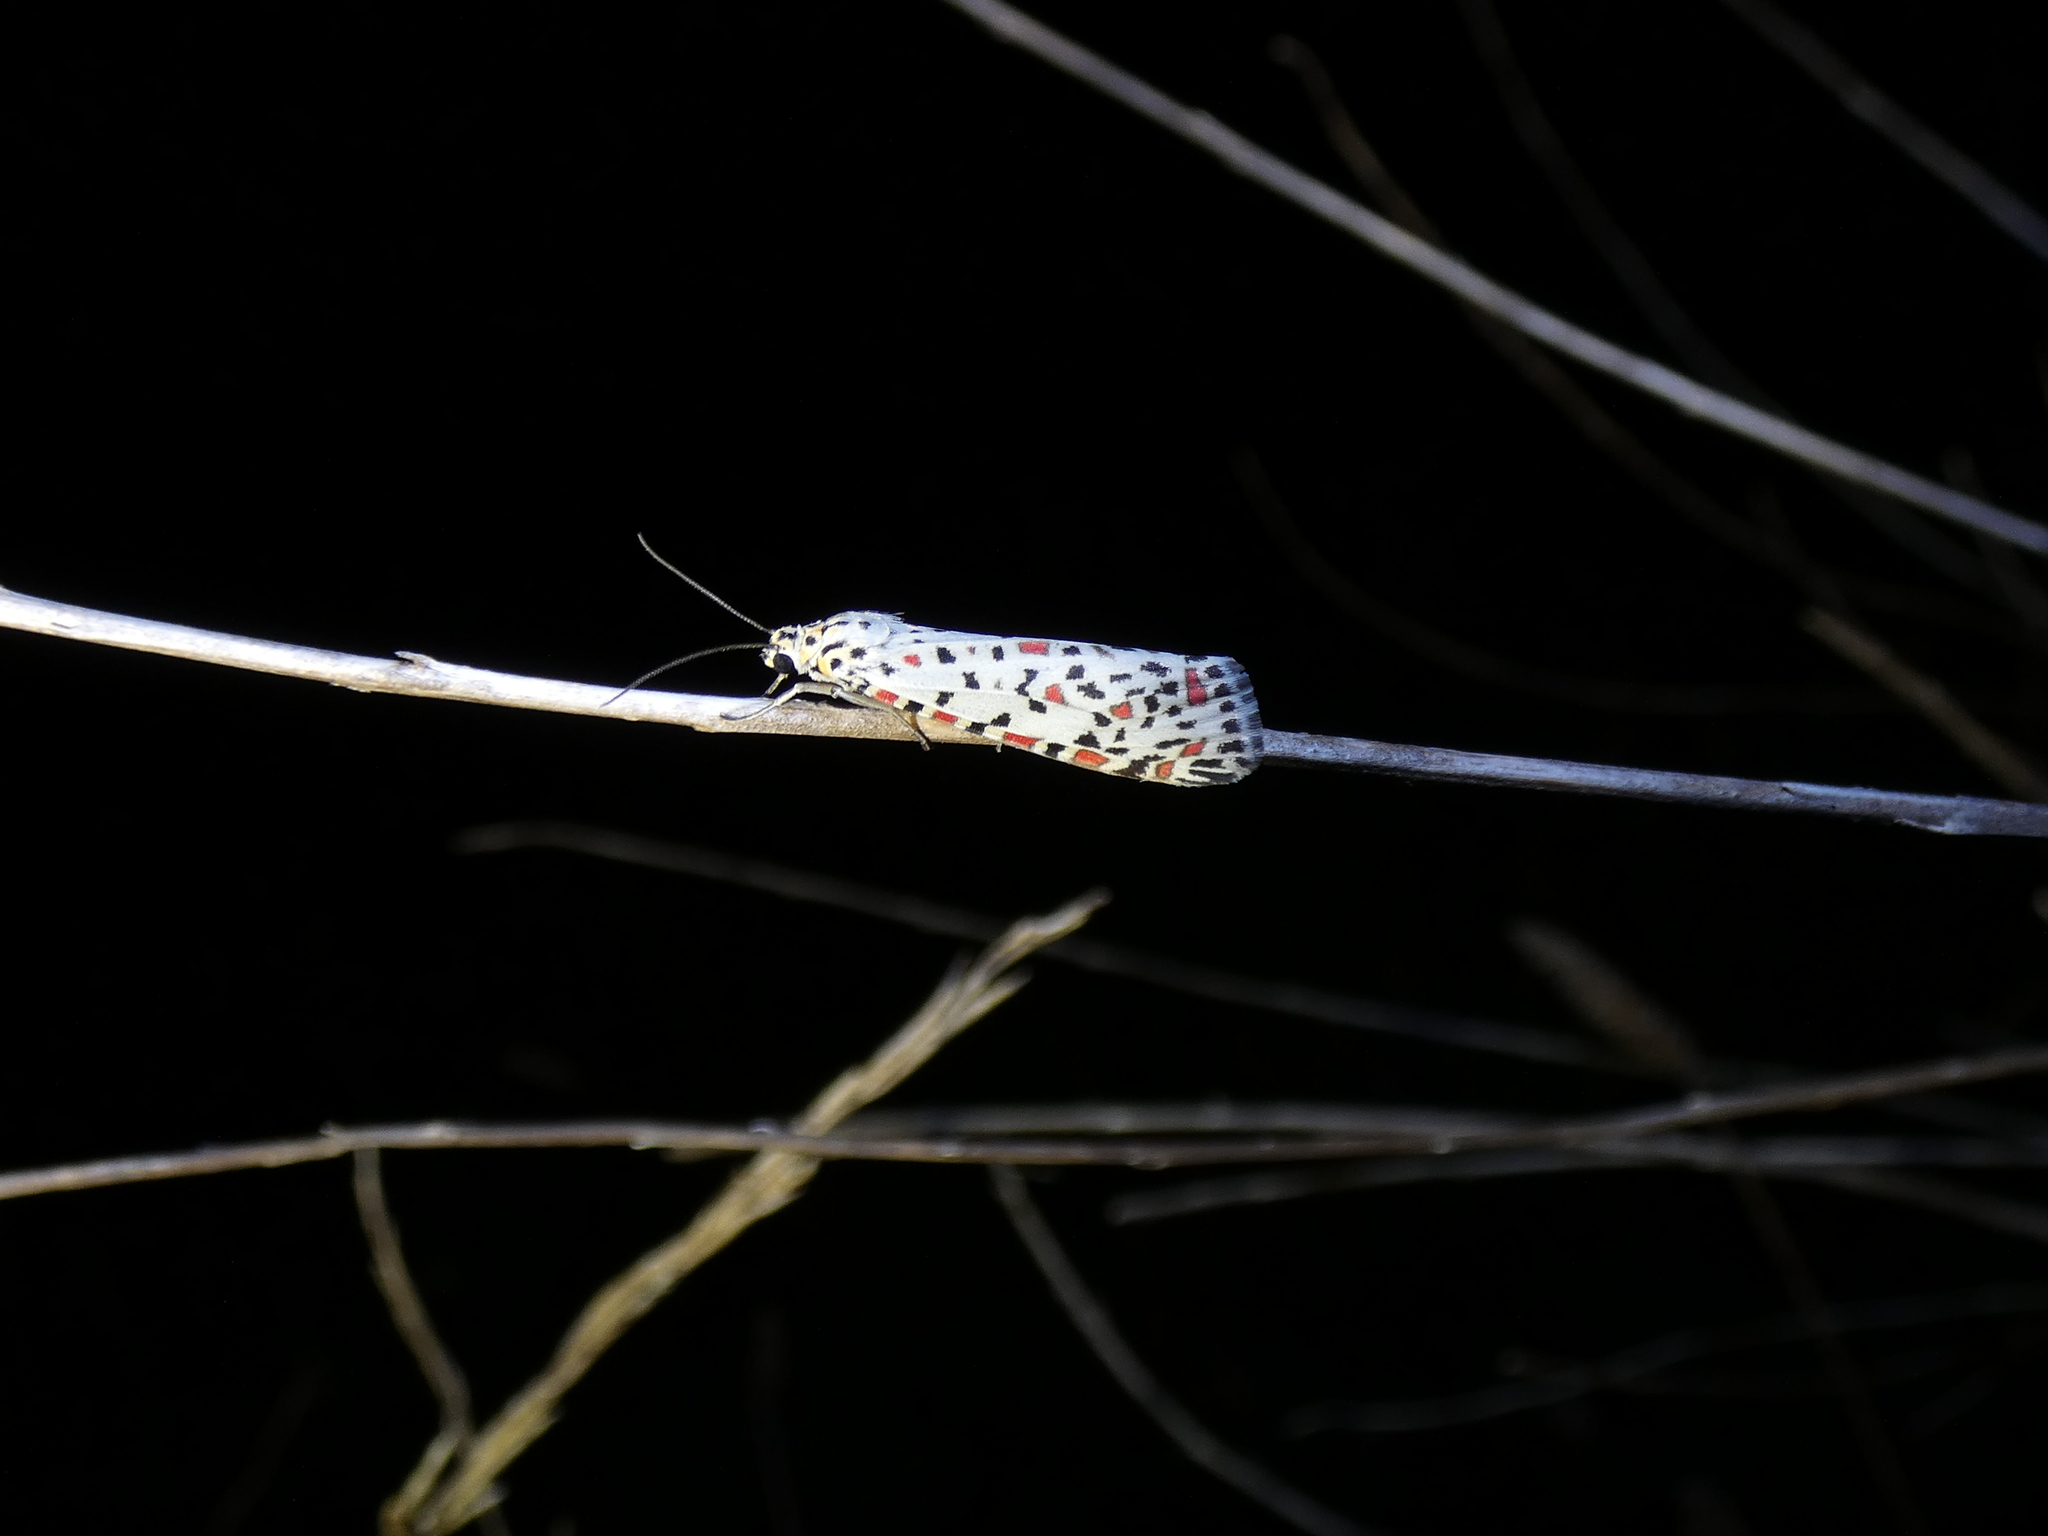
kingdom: Animalia
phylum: Arthropoda
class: Insecta
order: Lepidoptera
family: Erebidae
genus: Utetheisa
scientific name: Utetheisa pulchelloides
